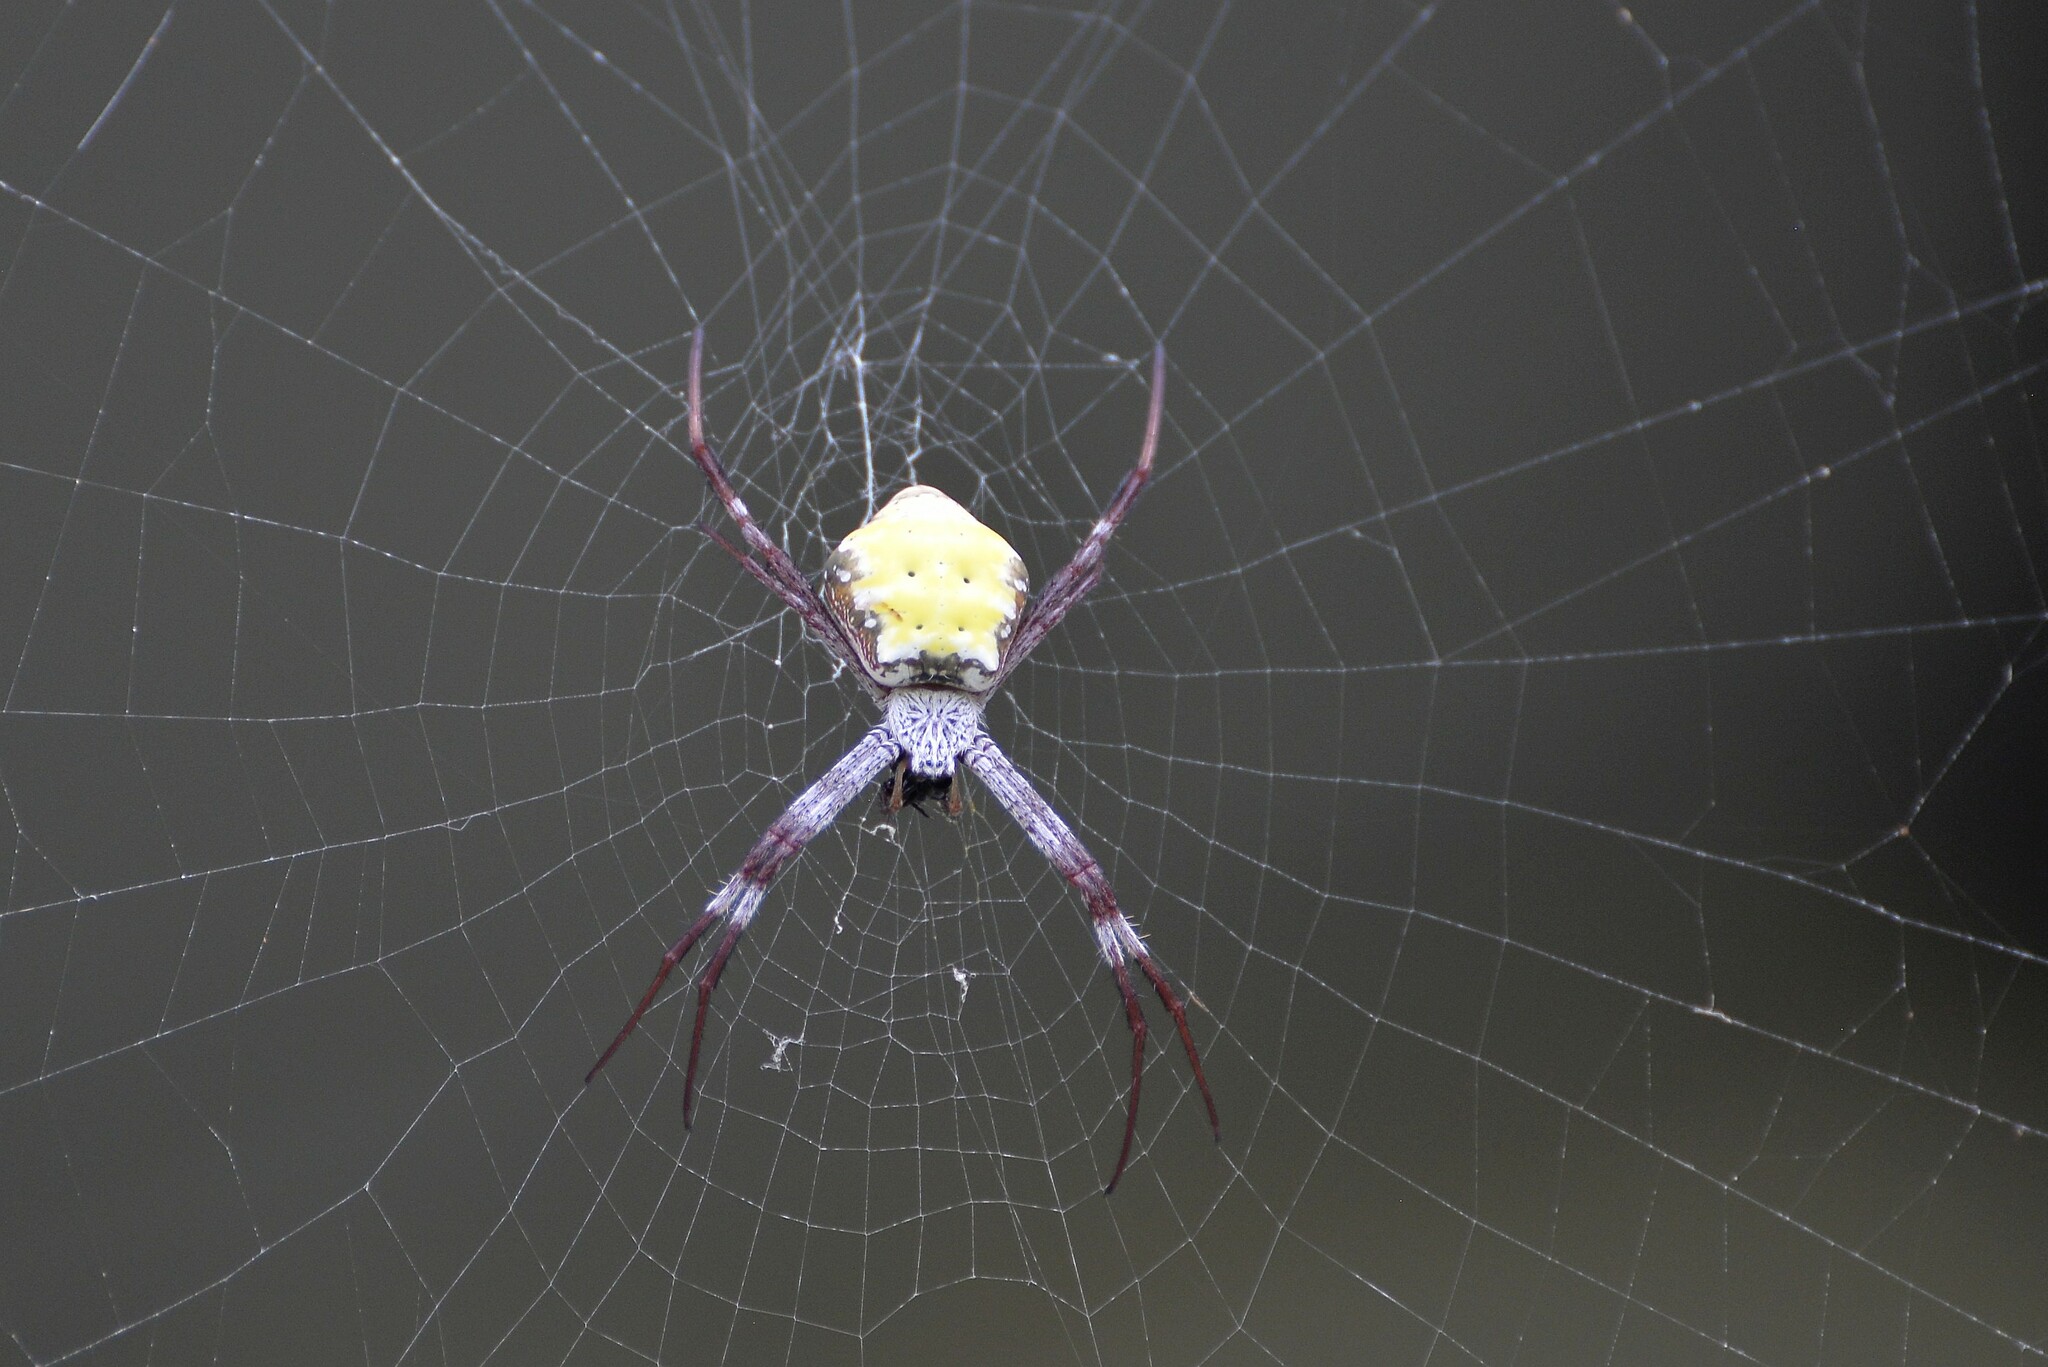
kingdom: Animalia
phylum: Arthropoda
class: Arachnida
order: Araneae
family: Araneidae
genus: Argiope
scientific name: Argiope aetherea
